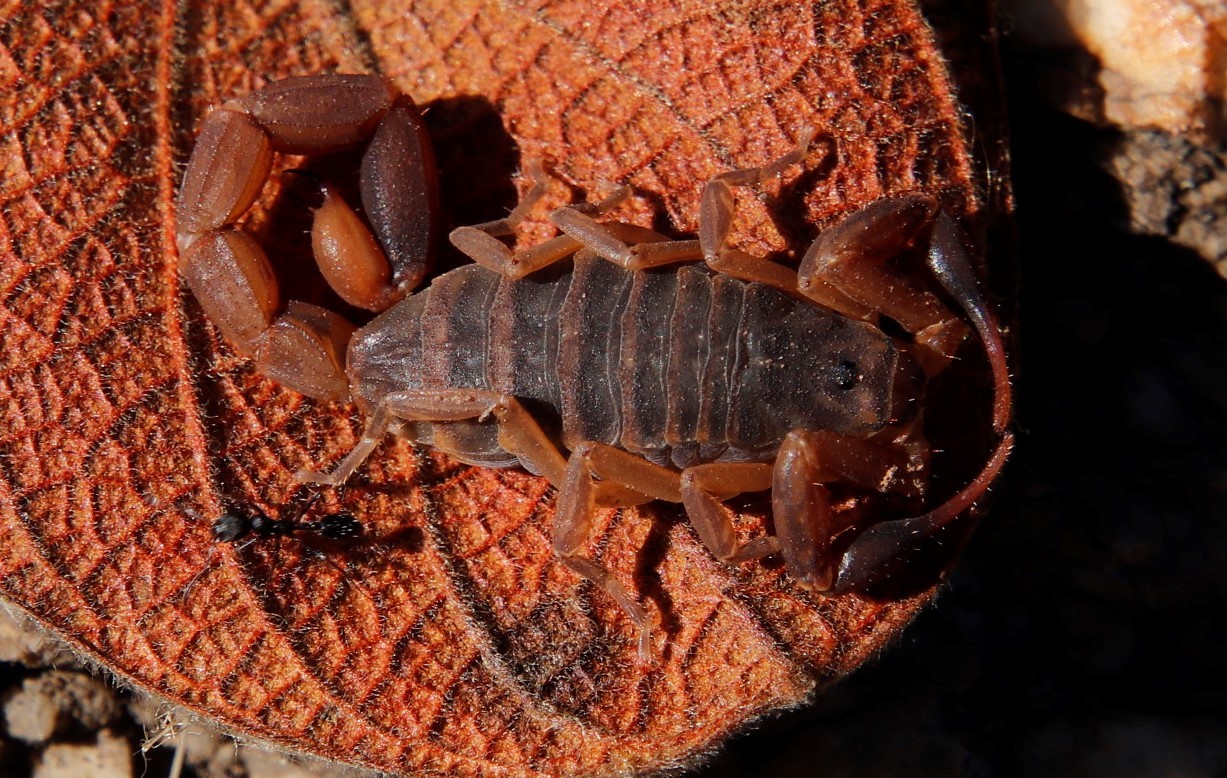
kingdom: Animalia
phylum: Arthropoda
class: Arachnida
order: Scorpiones
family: Buthidae
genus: Pseudolychas
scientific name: Pseudolychas ochraceus
